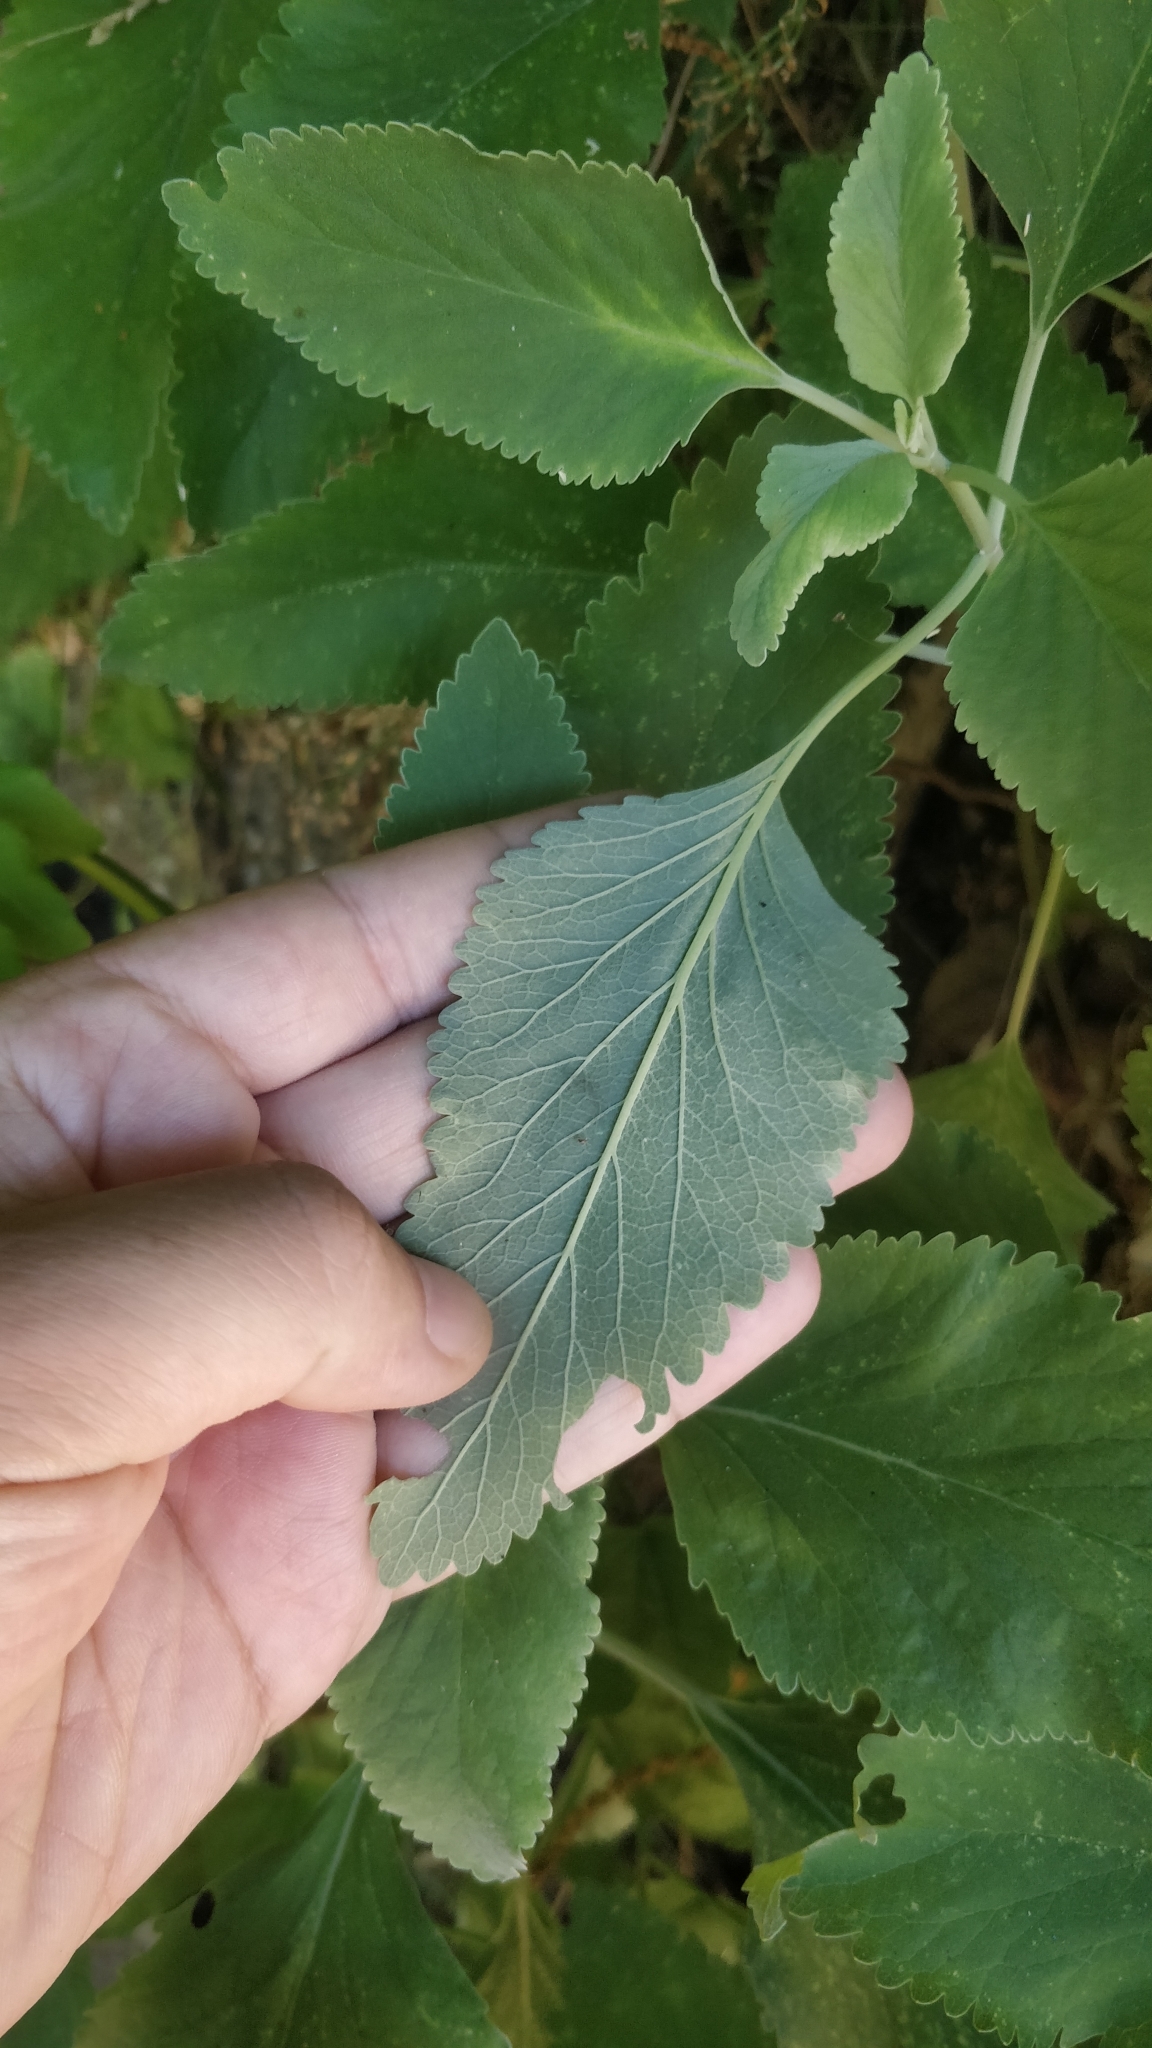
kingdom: Plantae
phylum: Tracheophyta
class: Magnoliopsida
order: Lamiales
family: Lamiaceae
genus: Teucrium
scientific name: Teucrium betonicum
